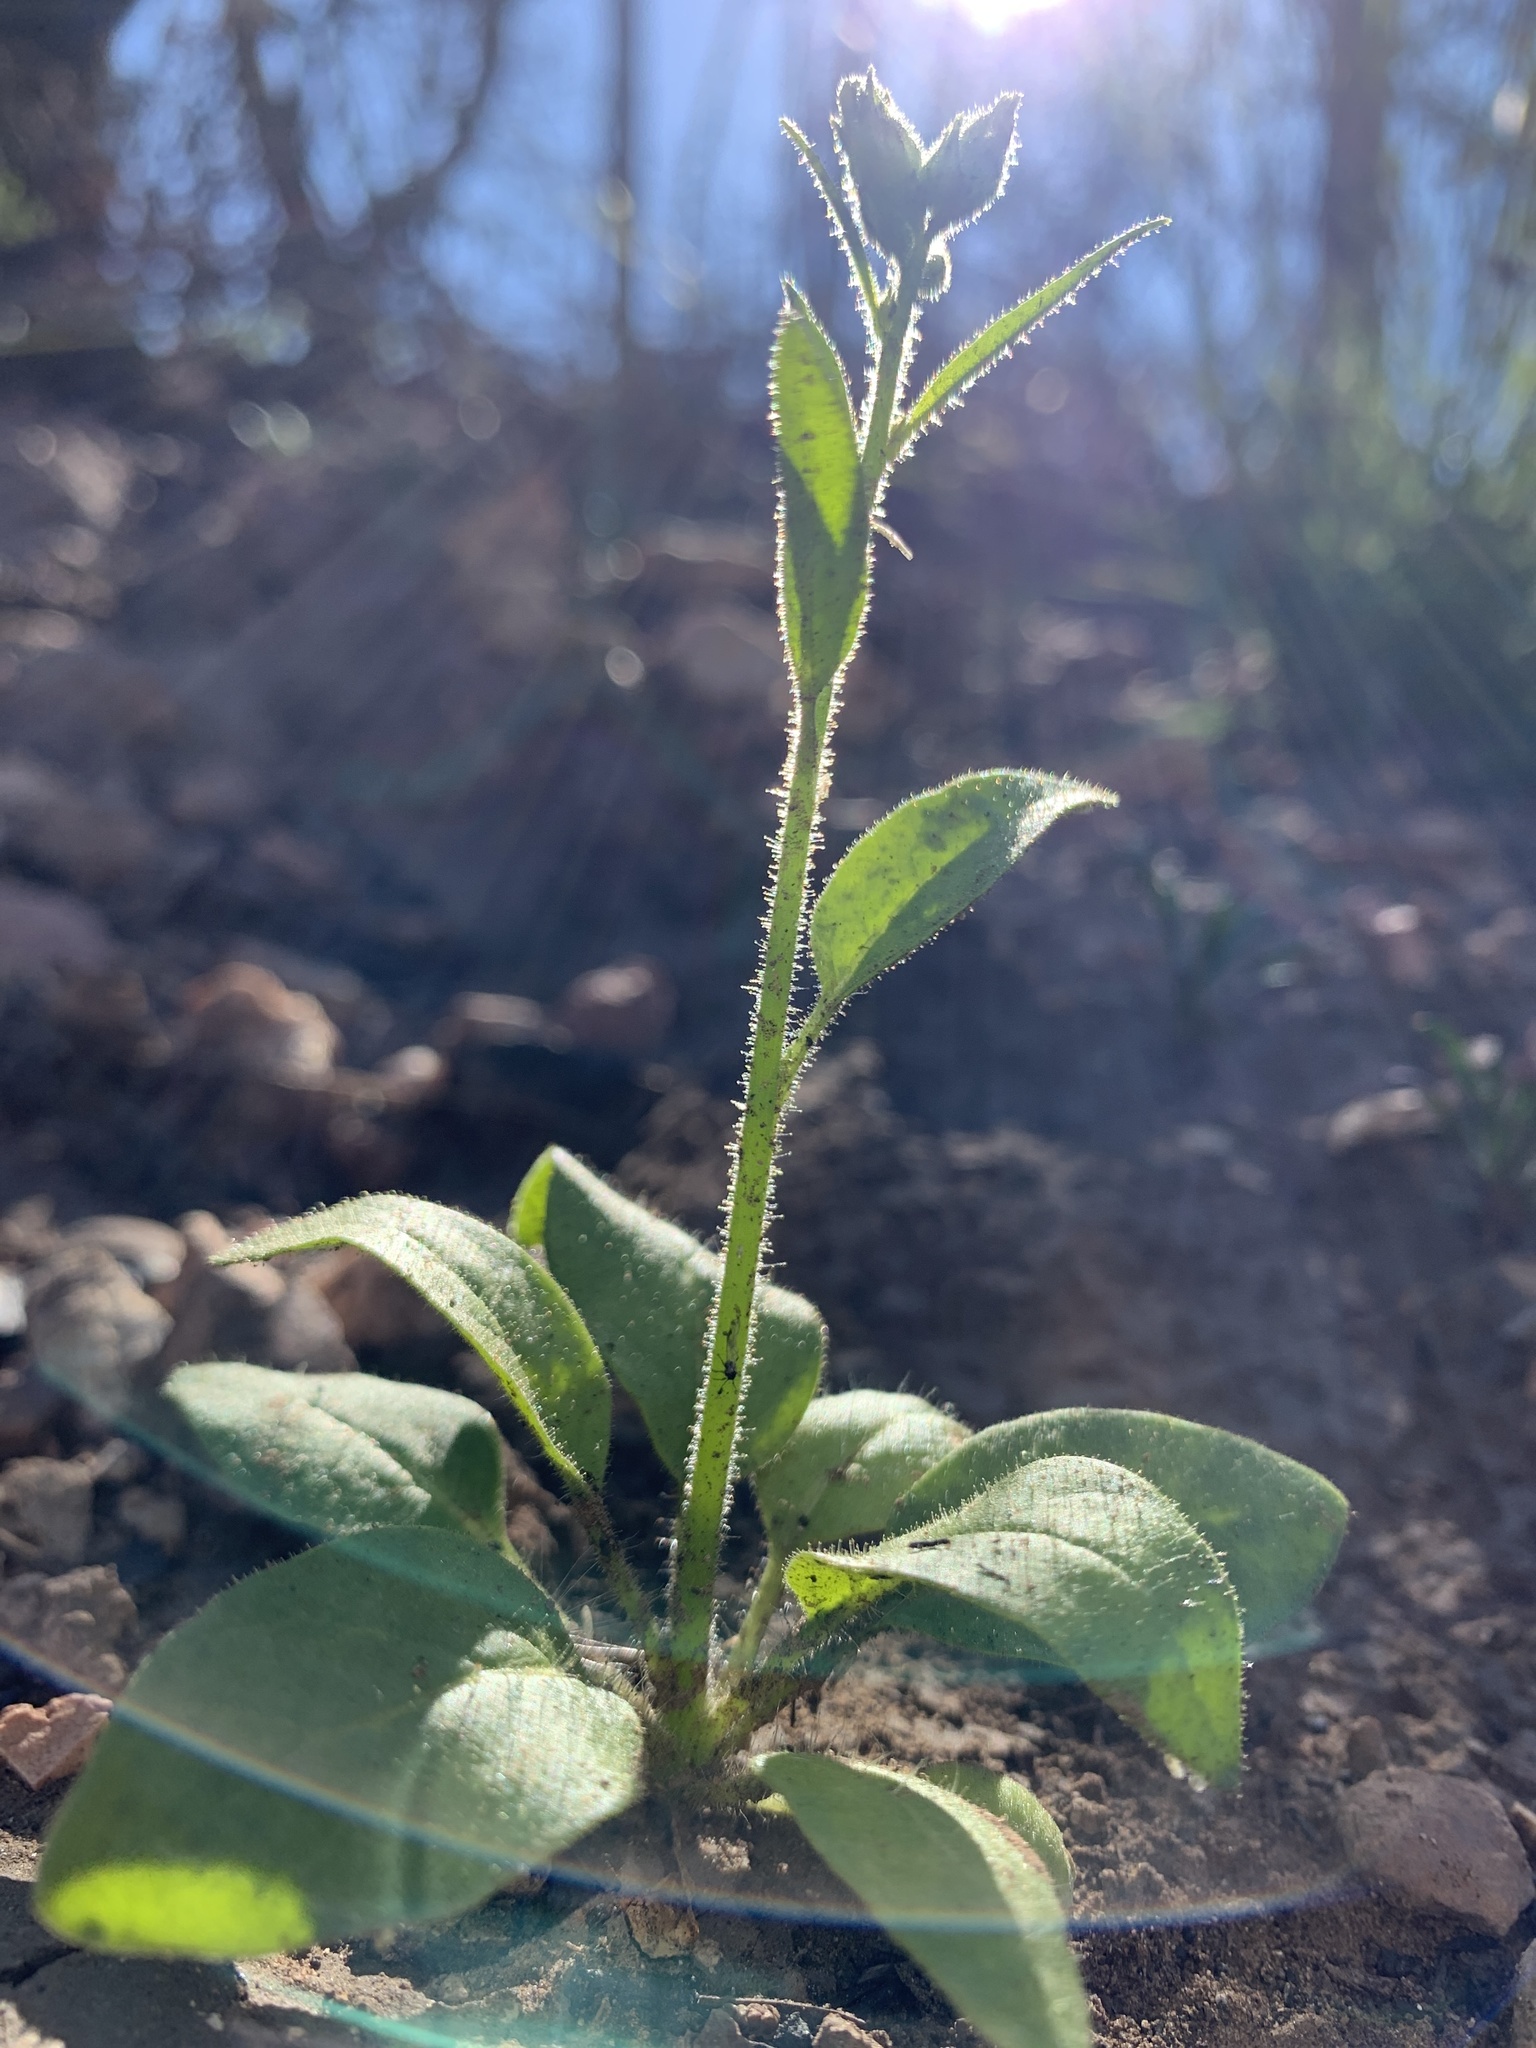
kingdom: Plantae
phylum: Tracheophyta
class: Magnoliopsida
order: Solanales
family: Solanaceae
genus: Nicotiana
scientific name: Nicotiana attenuata
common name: Coyote tobacco
